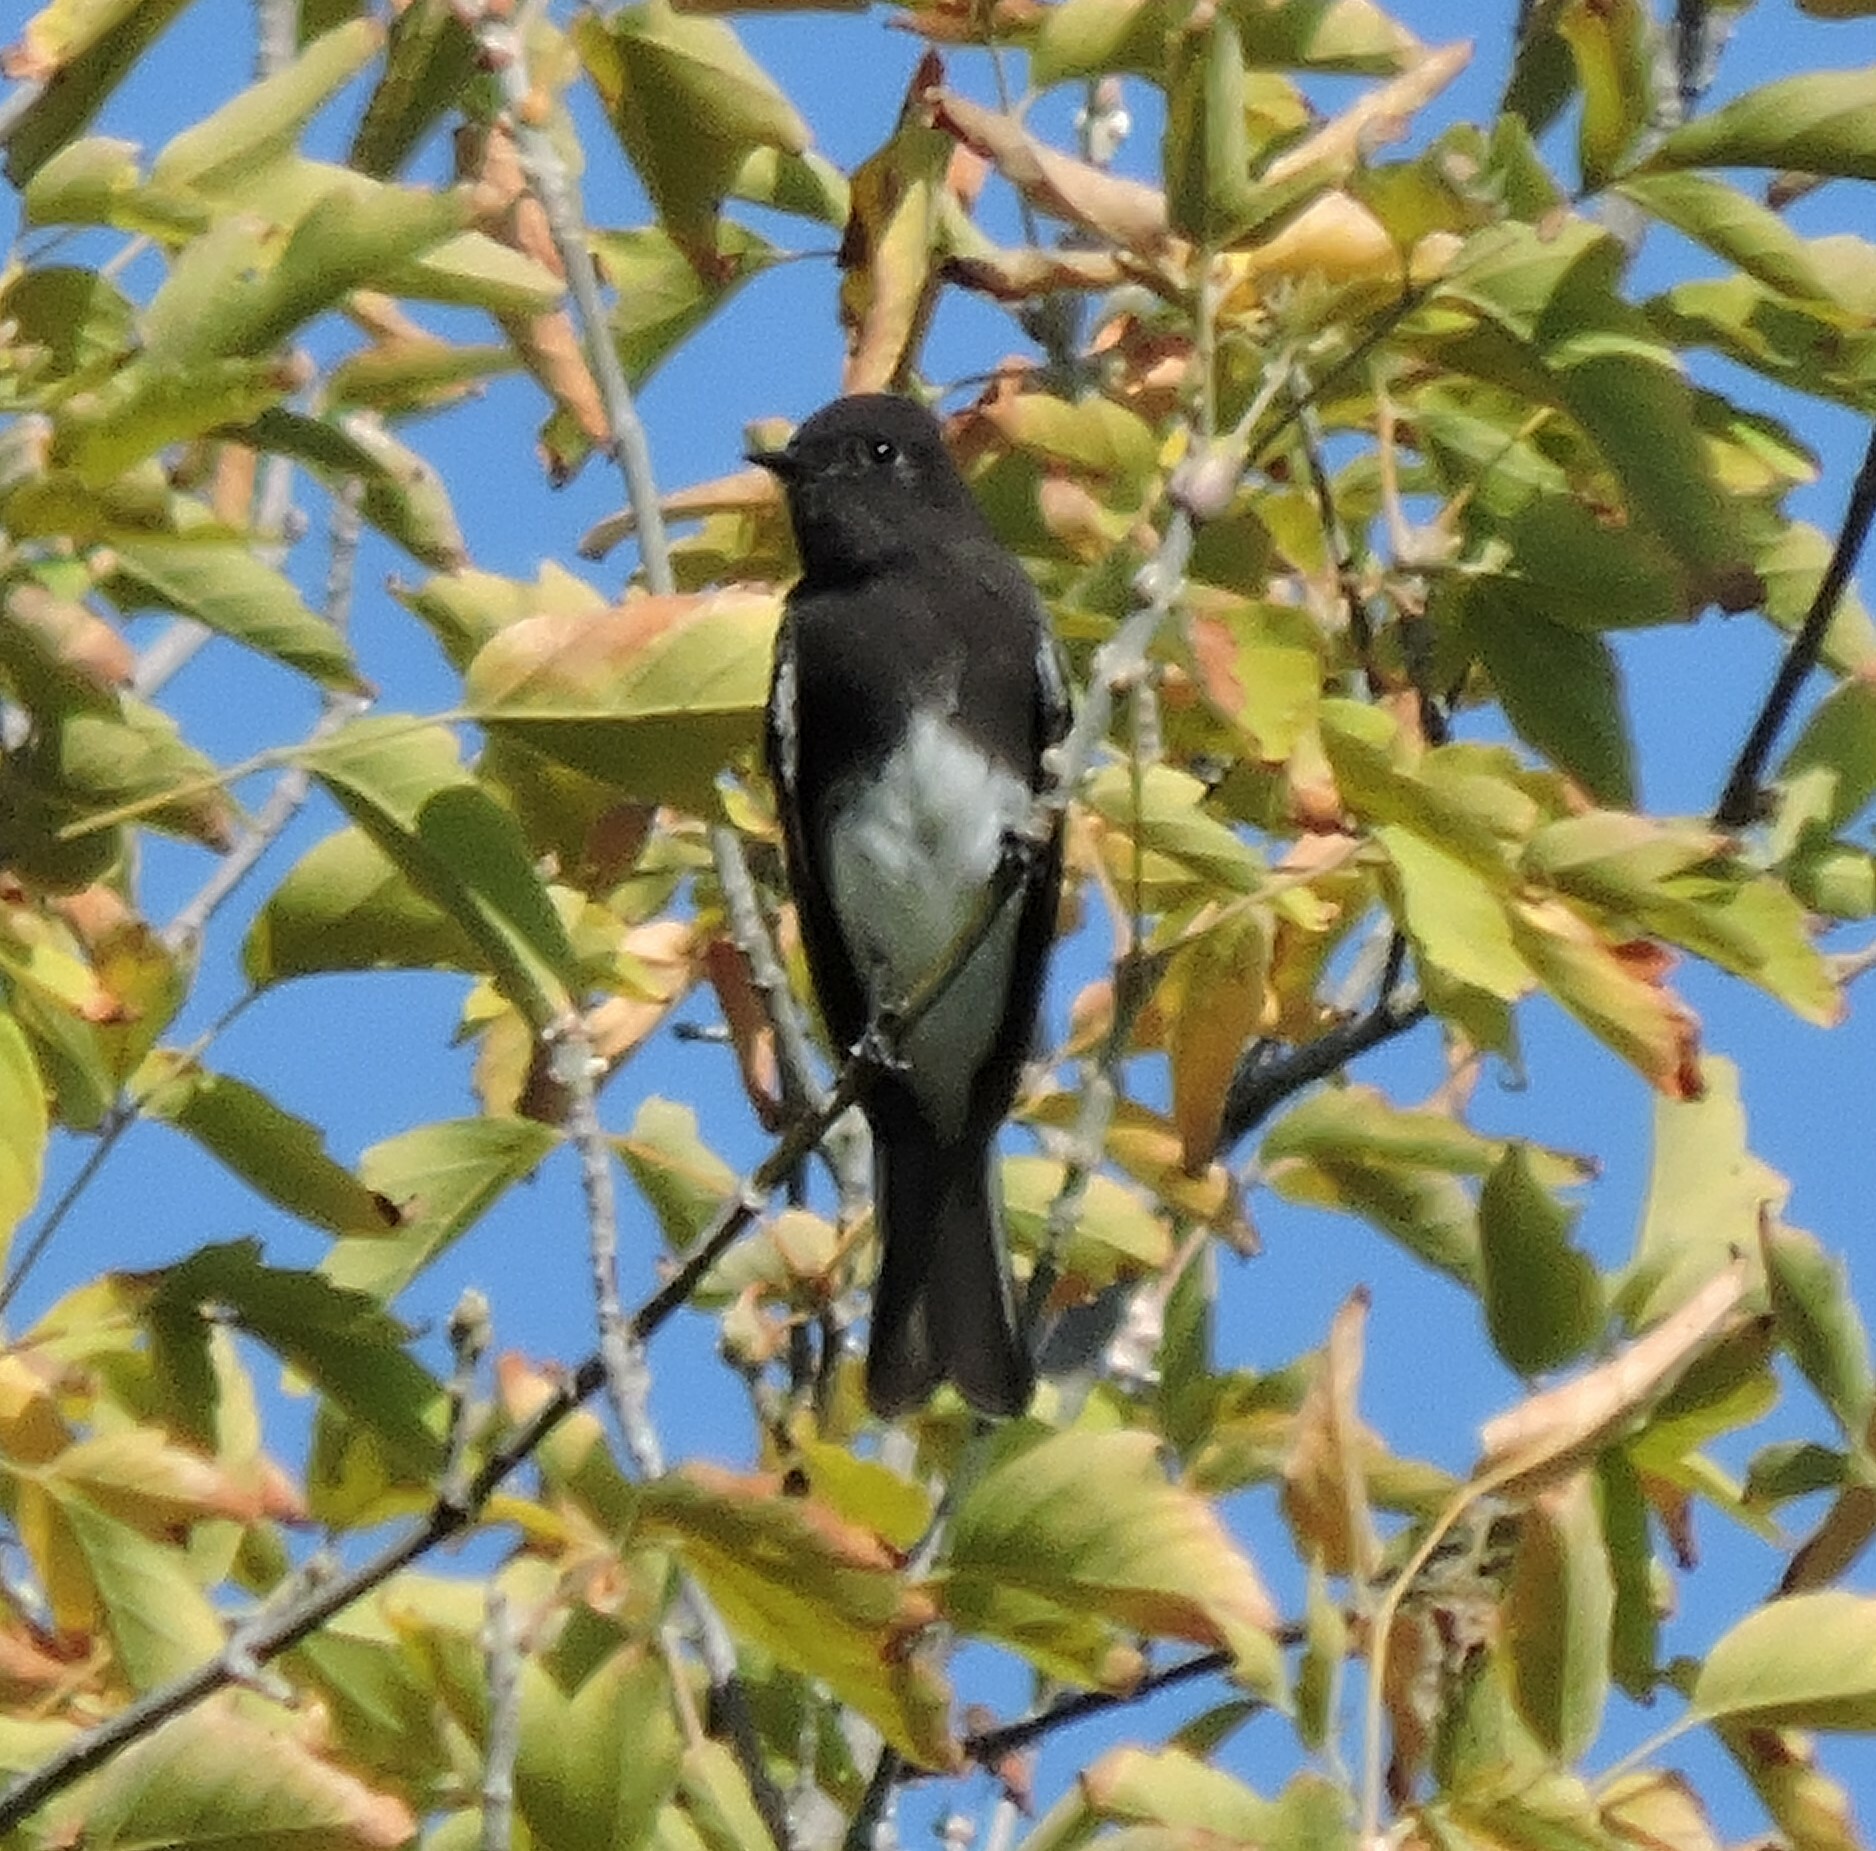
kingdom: Animalia
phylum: Chordata
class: Aves
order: Passeriformes
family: Tyrannidae
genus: Sayornis
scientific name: Sayornis nigricans
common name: Black phoebe
